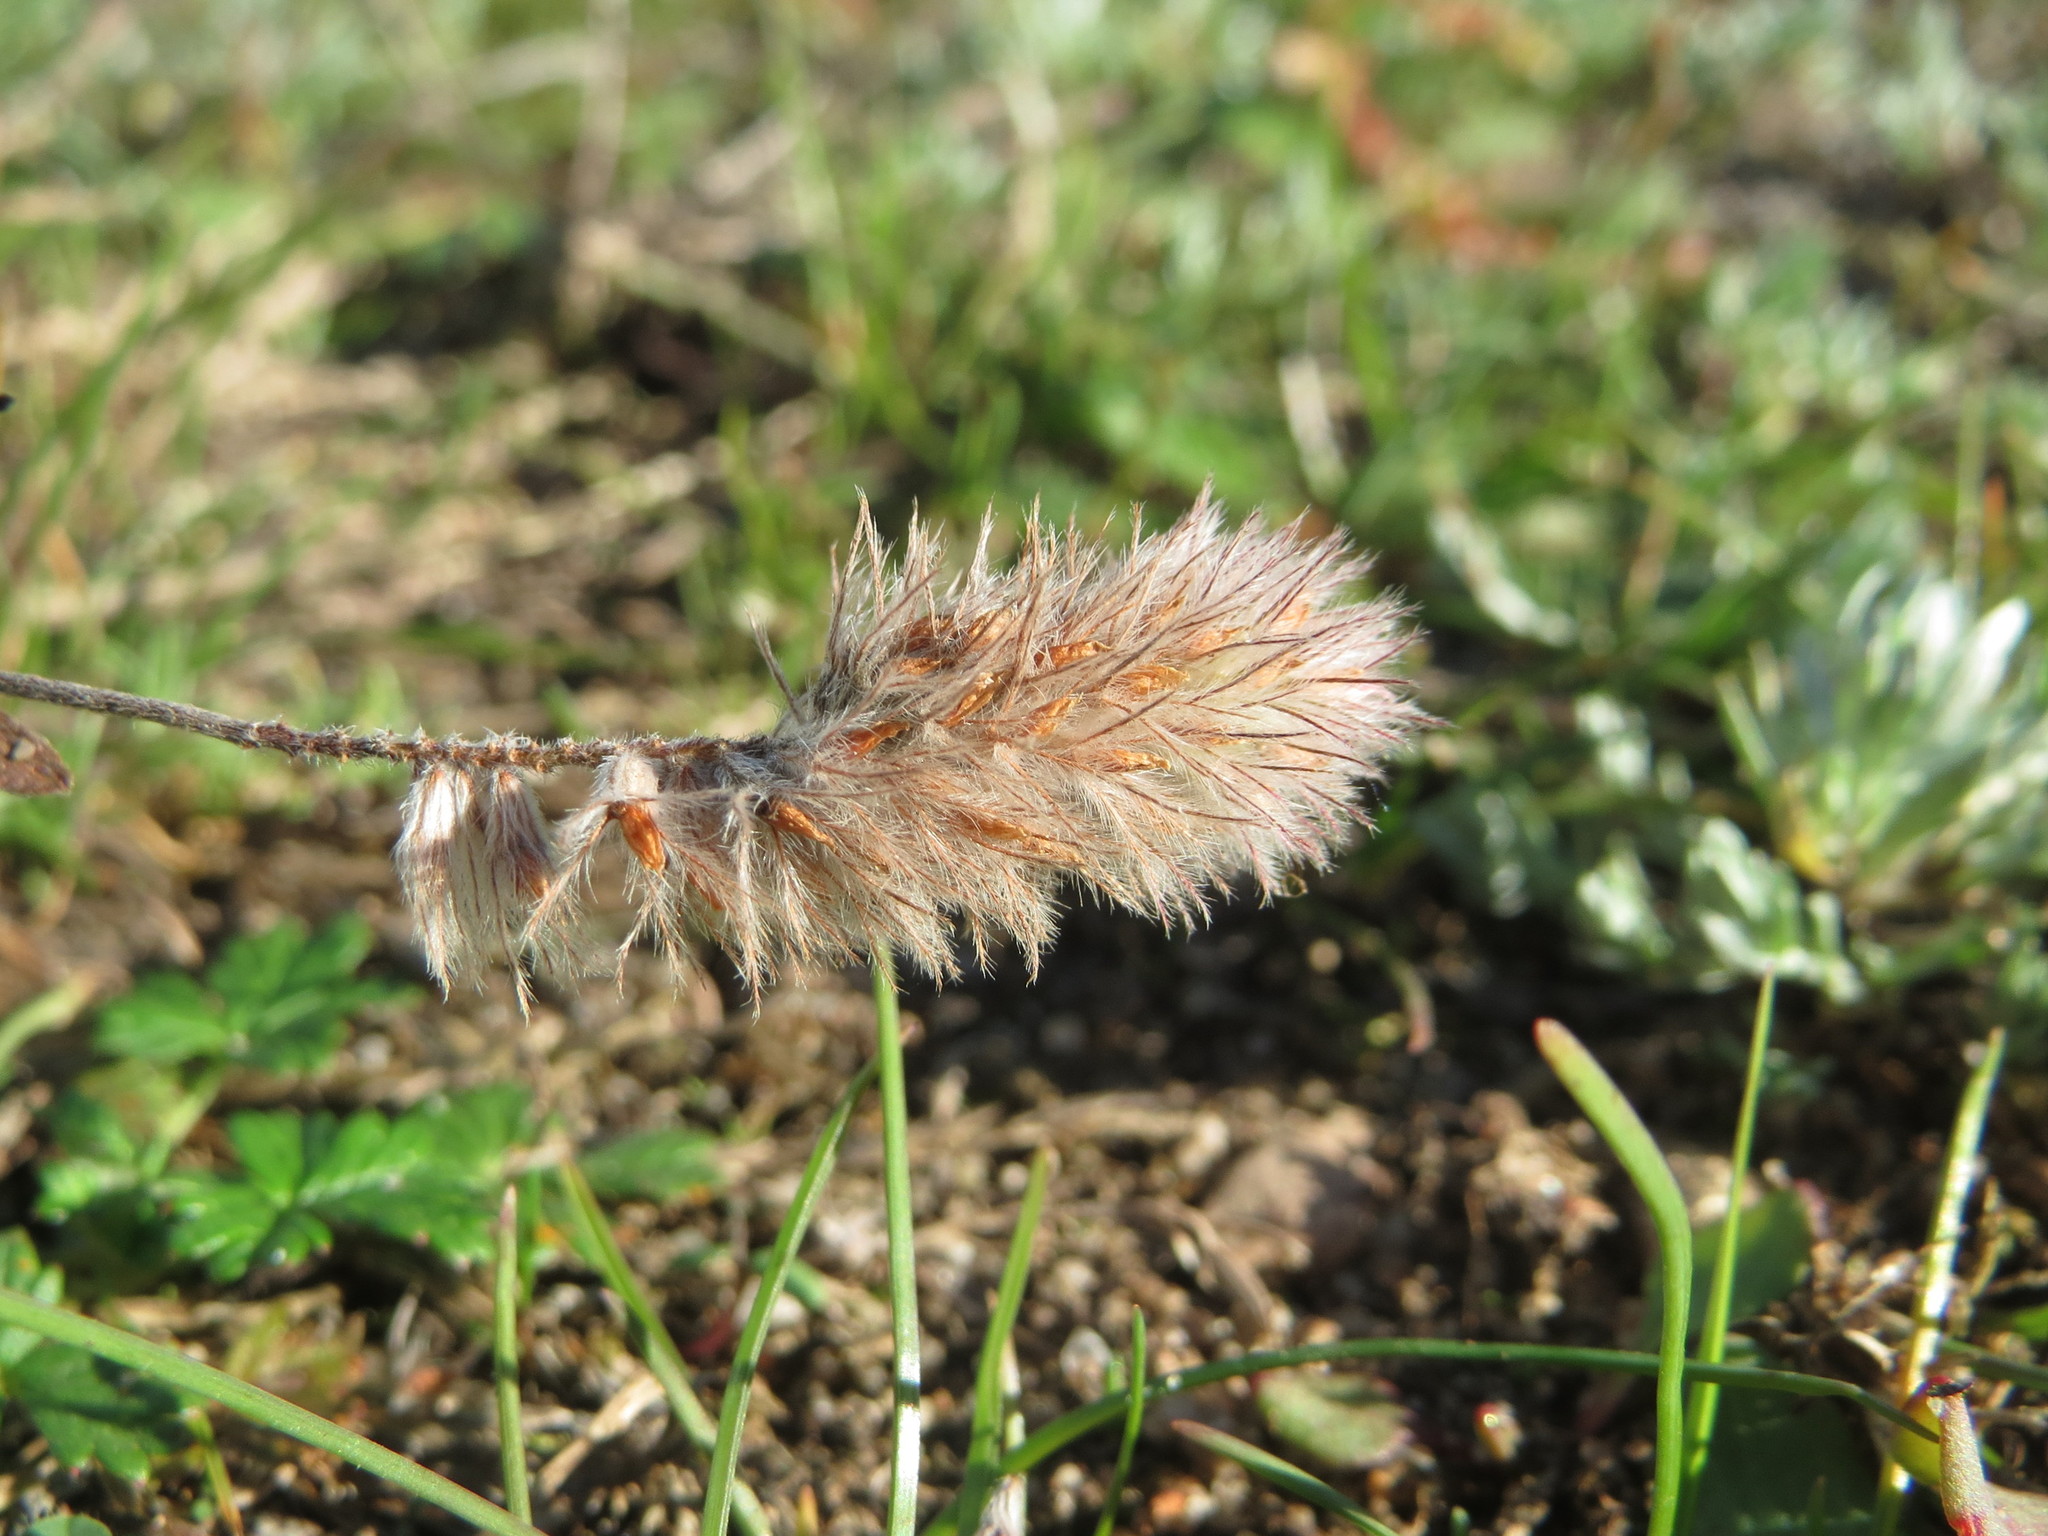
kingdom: Plantae
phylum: Tracheophyta
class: Magnoliopsida
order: Fabales
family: Fabaceae
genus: Trifolium
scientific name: Trifolium arvense
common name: Hare's-foot clover
